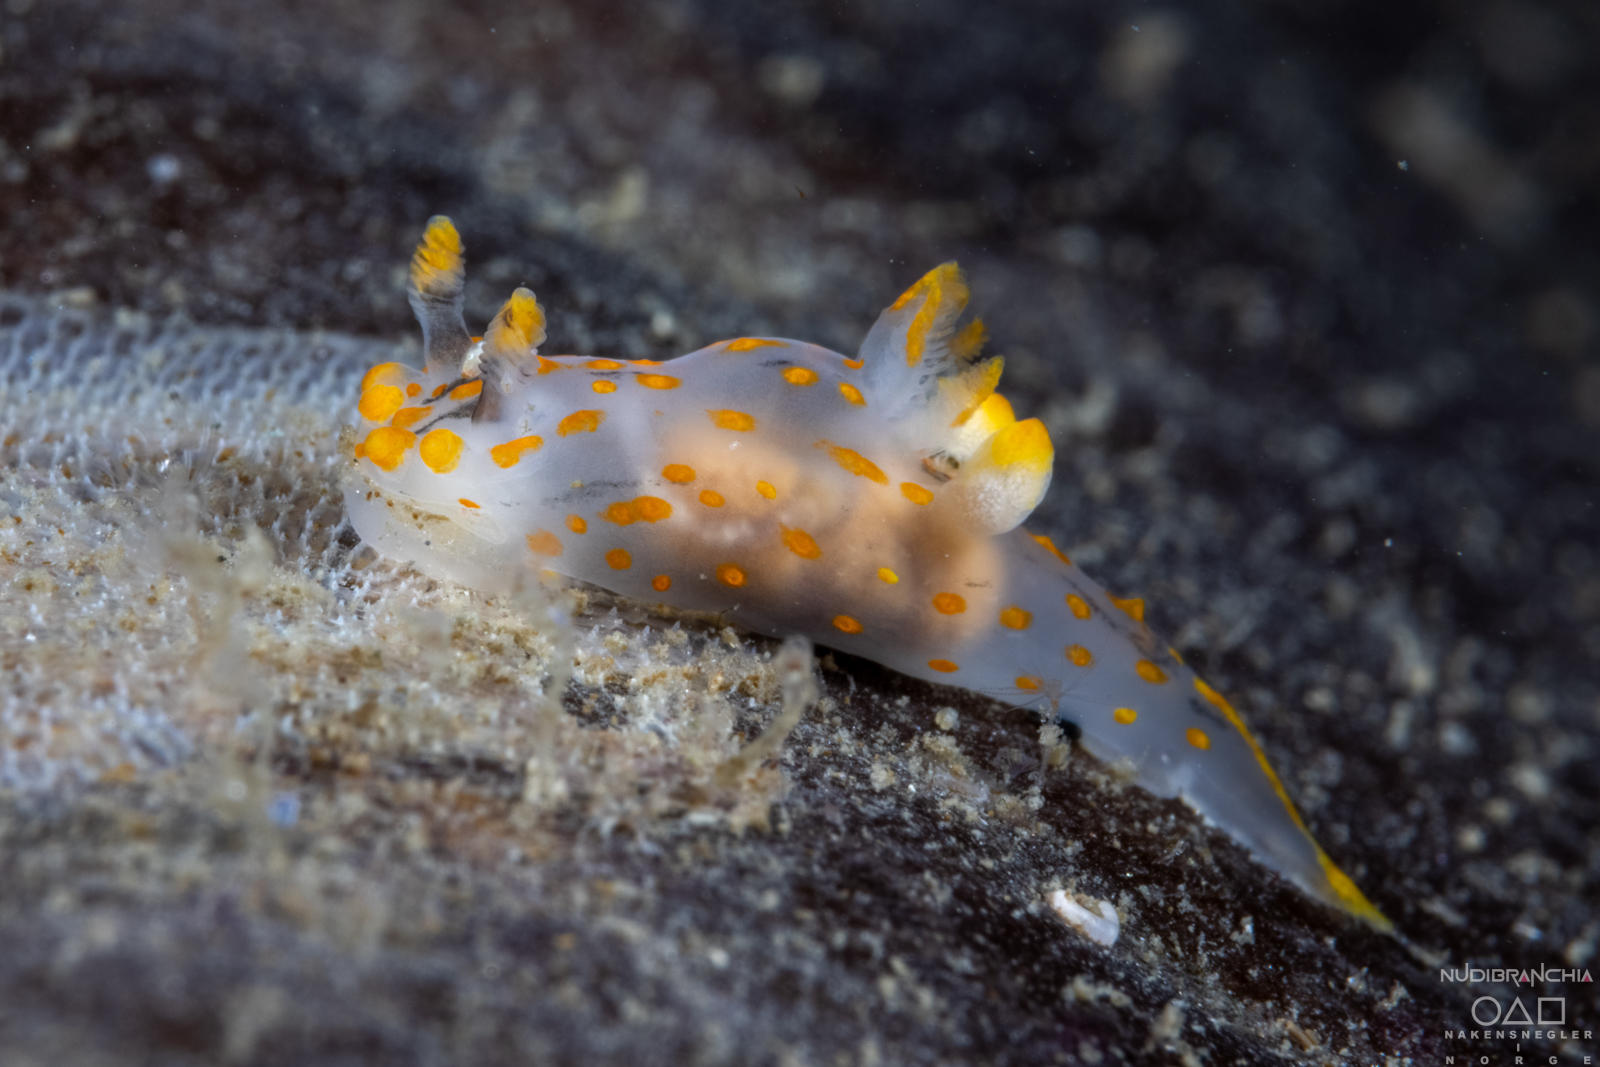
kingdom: Animalia
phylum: Mollusca
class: Gastropoda
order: Nudibranchia
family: Polyceridae
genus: Polycera
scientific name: Polycera quadrilineata
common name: Four-striped polycera
